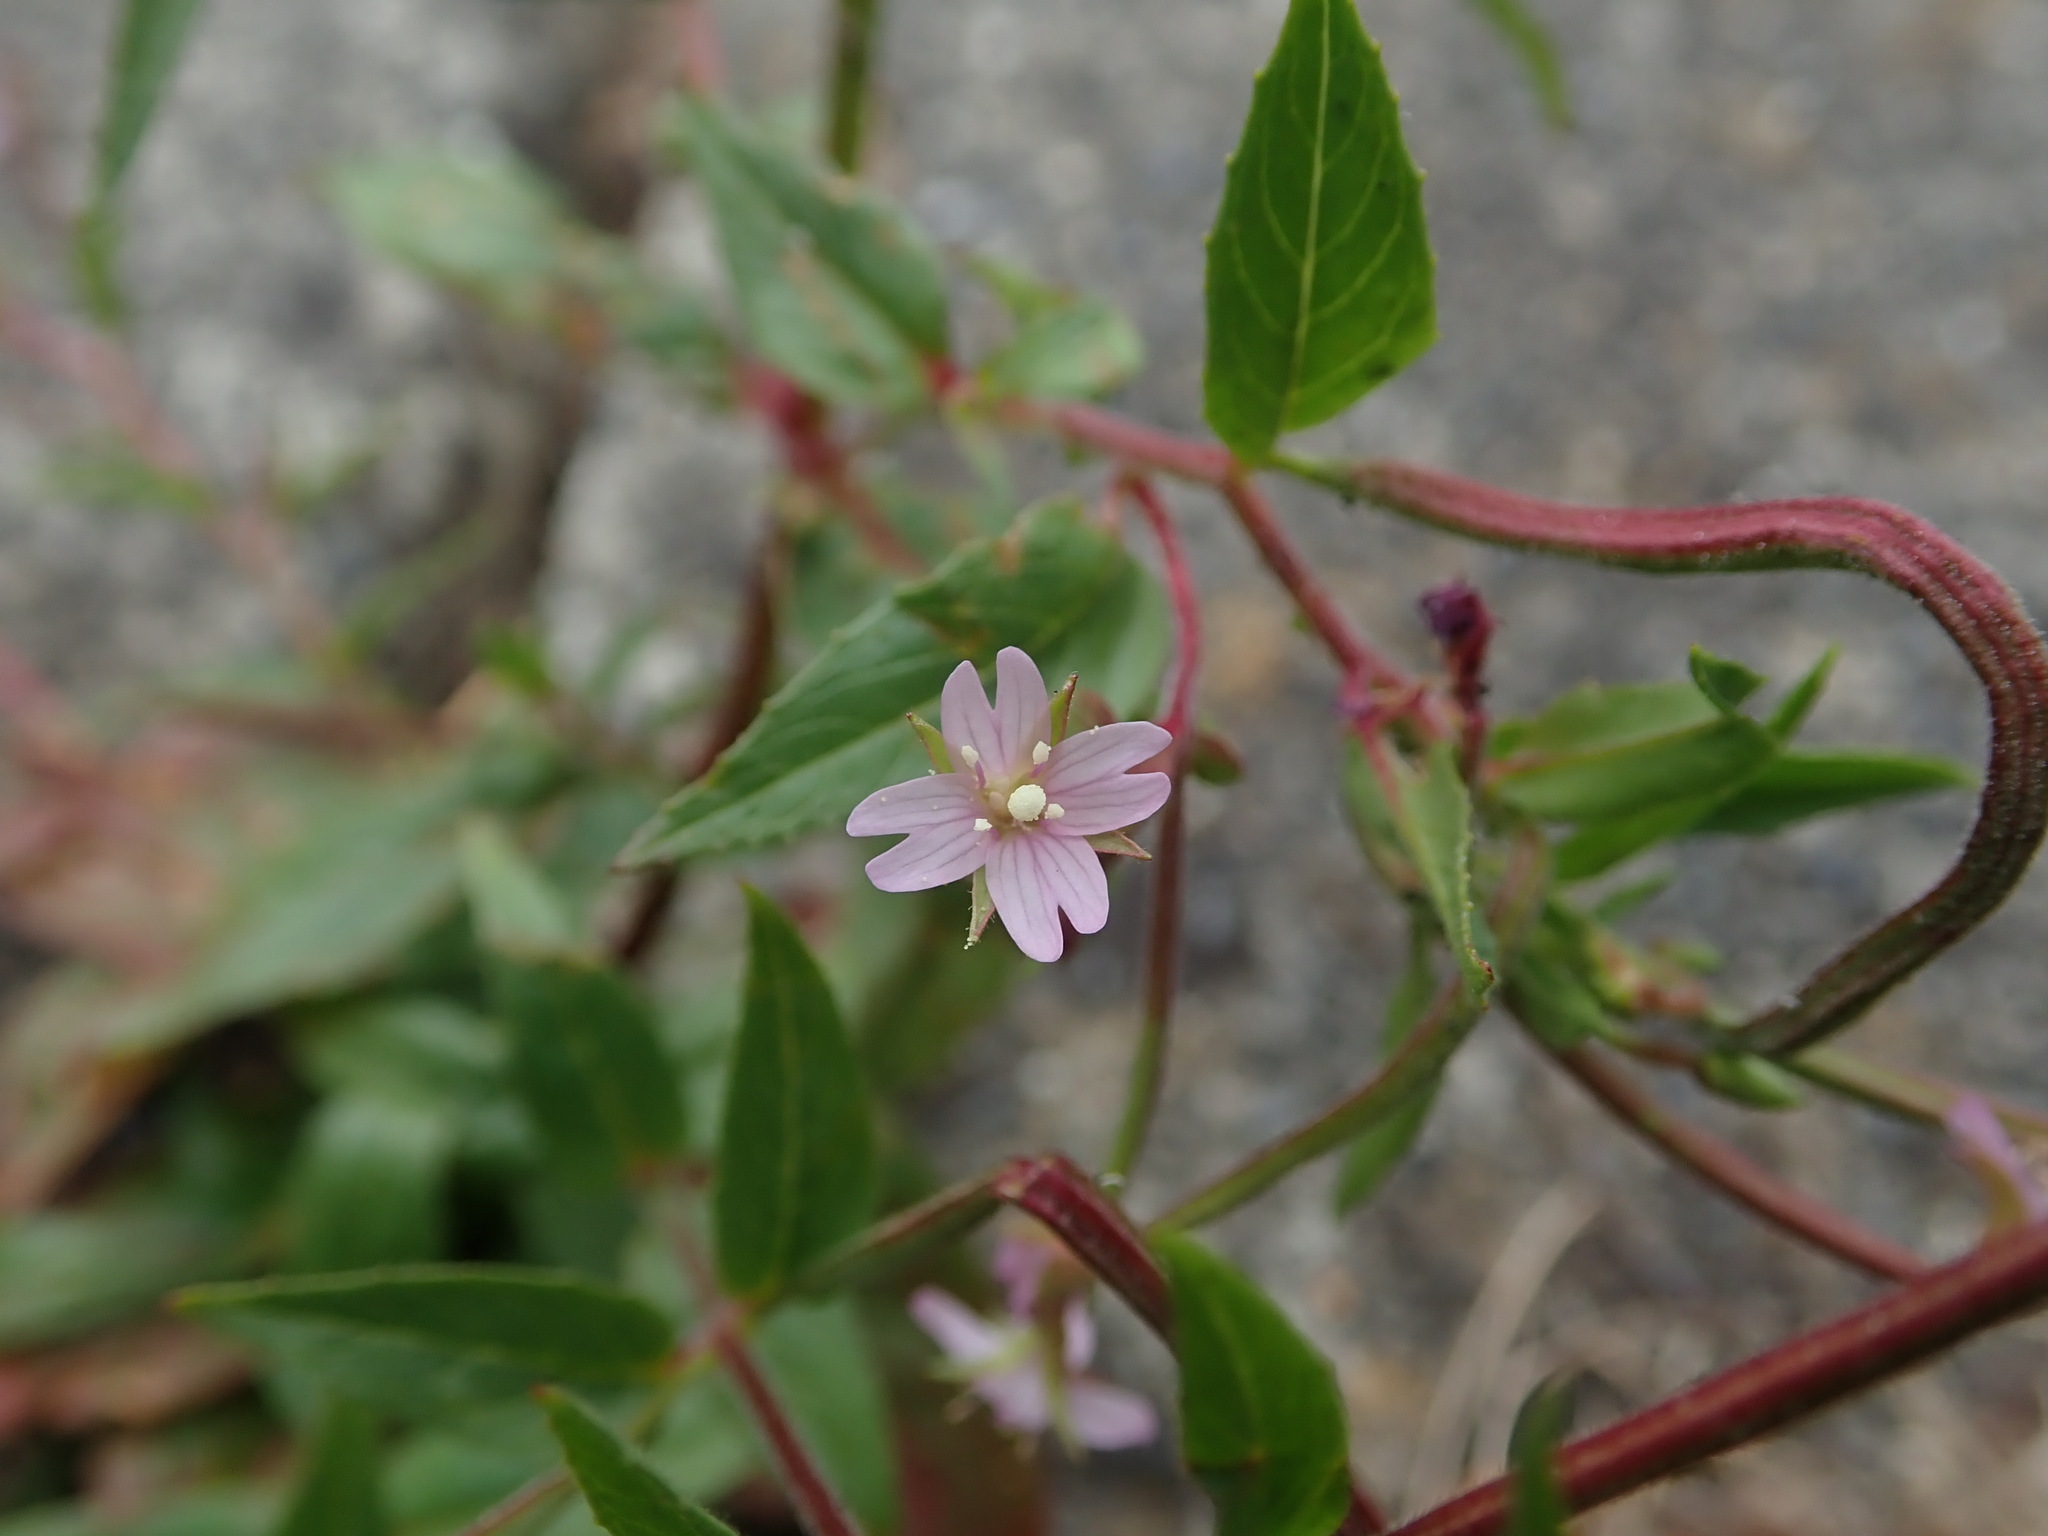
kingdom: Plantae
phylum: Tracheophyta
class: Magnoliopsida
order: Myrtales
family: Onagraceae
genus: Epilobium
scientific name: Epilobium ciliatum
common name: American willowherb
